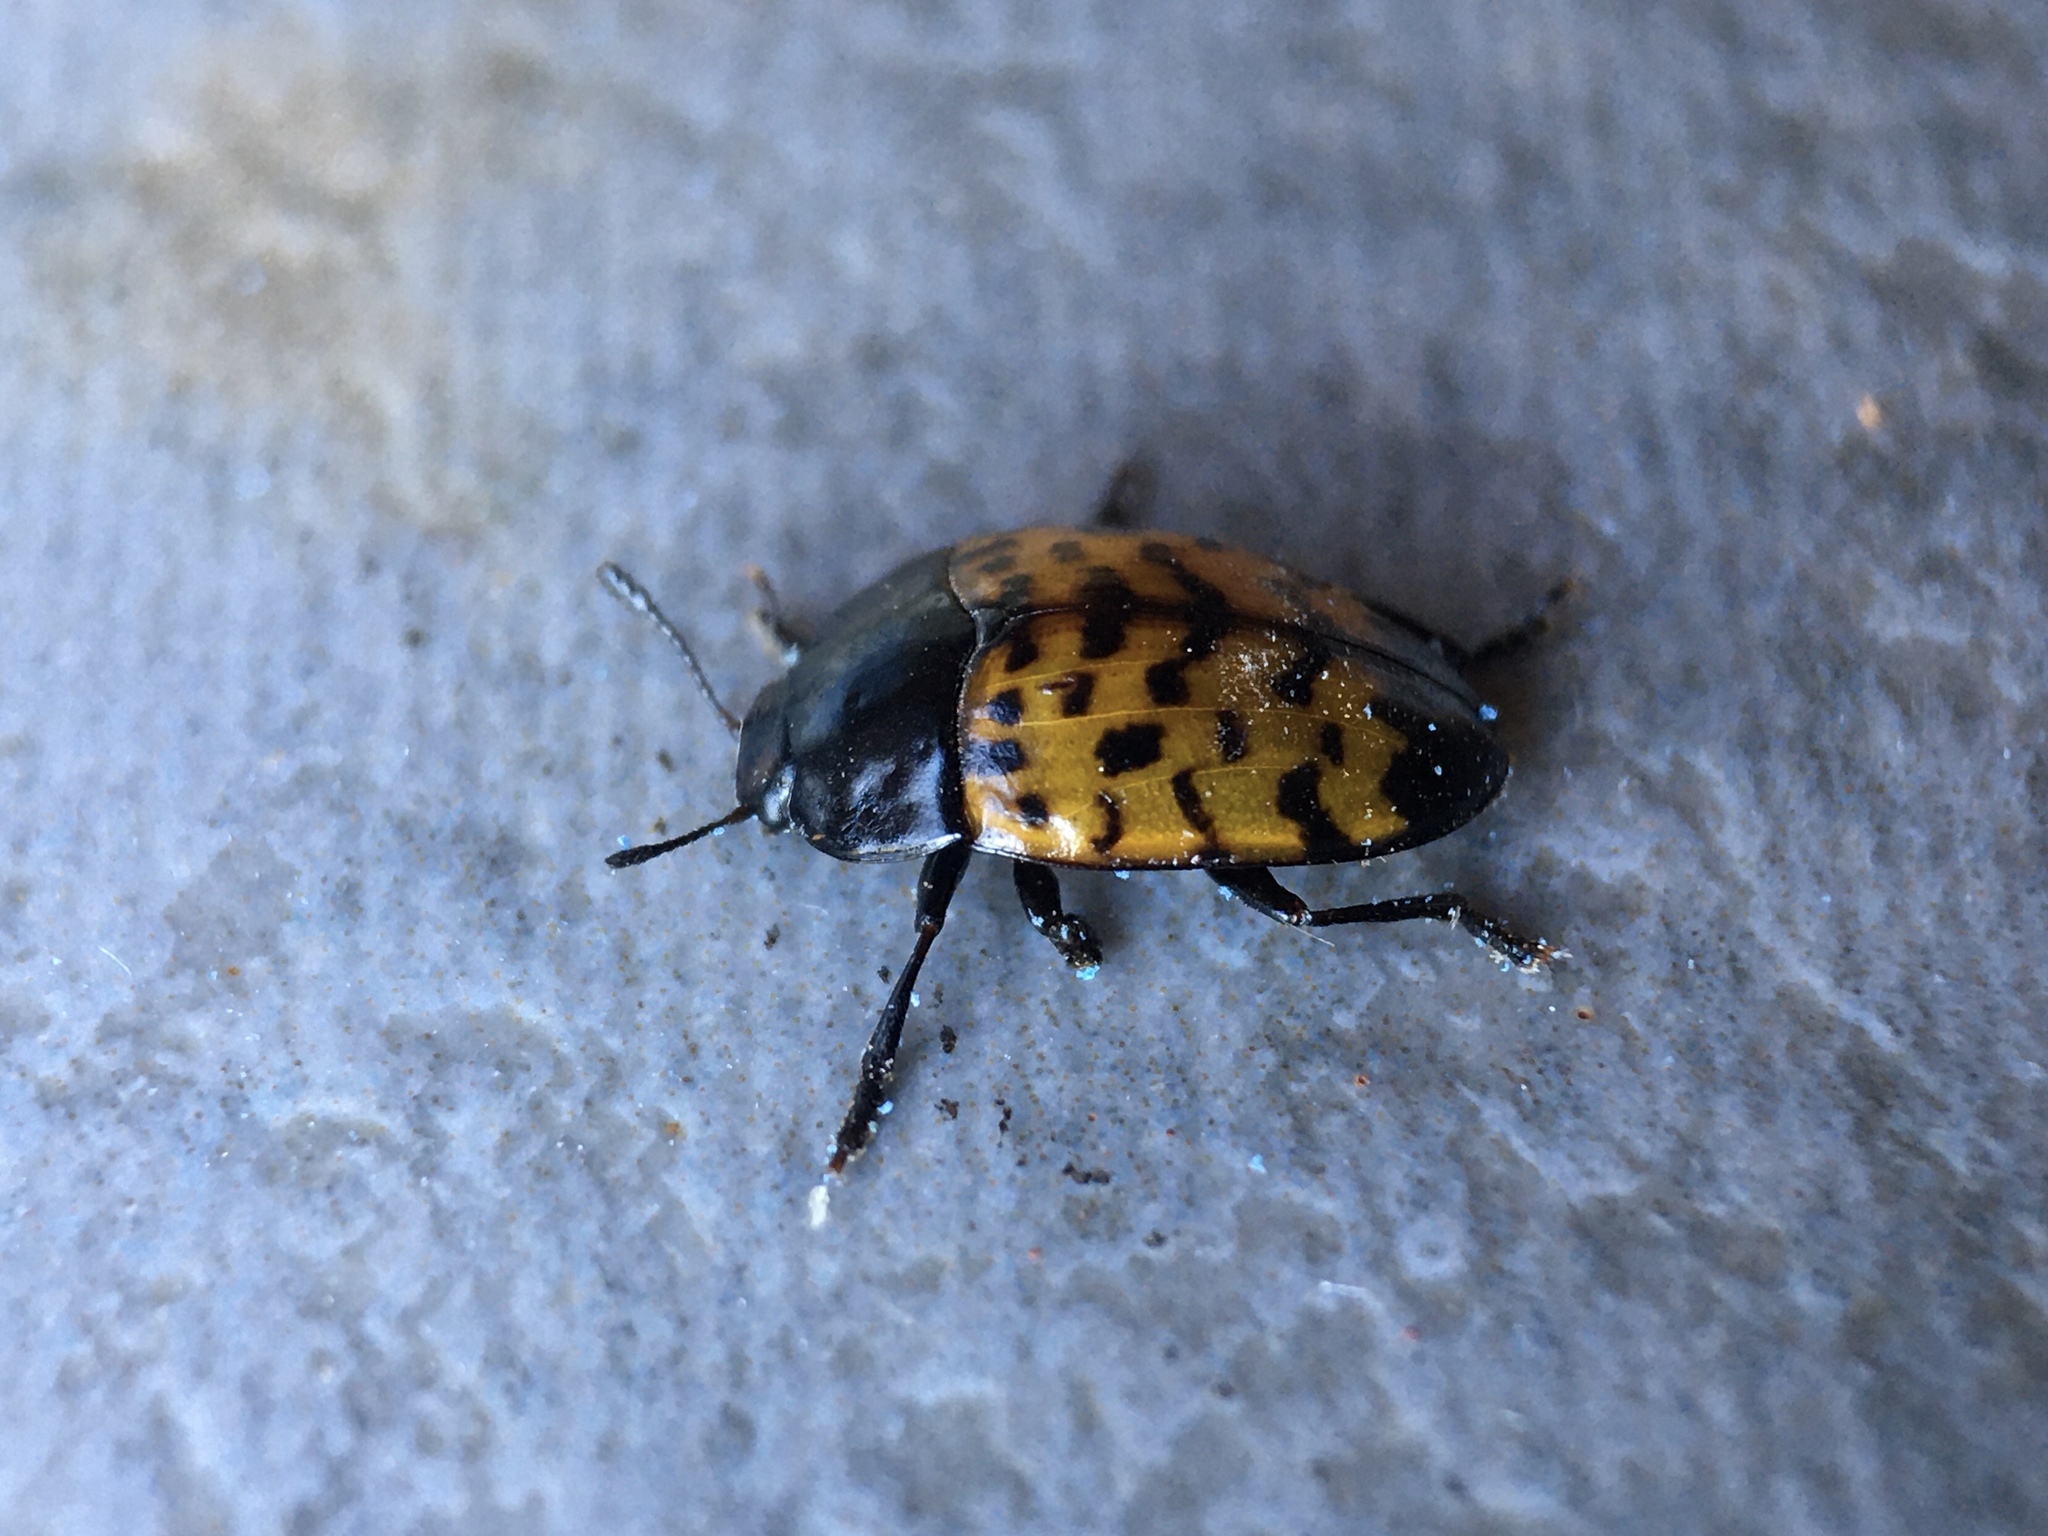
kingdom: Animalia
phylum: Arthropoda
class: Insecta
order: Coleoptera
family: Erotylidae
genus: Iphiclus
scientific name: Iphiclus dorsalis
